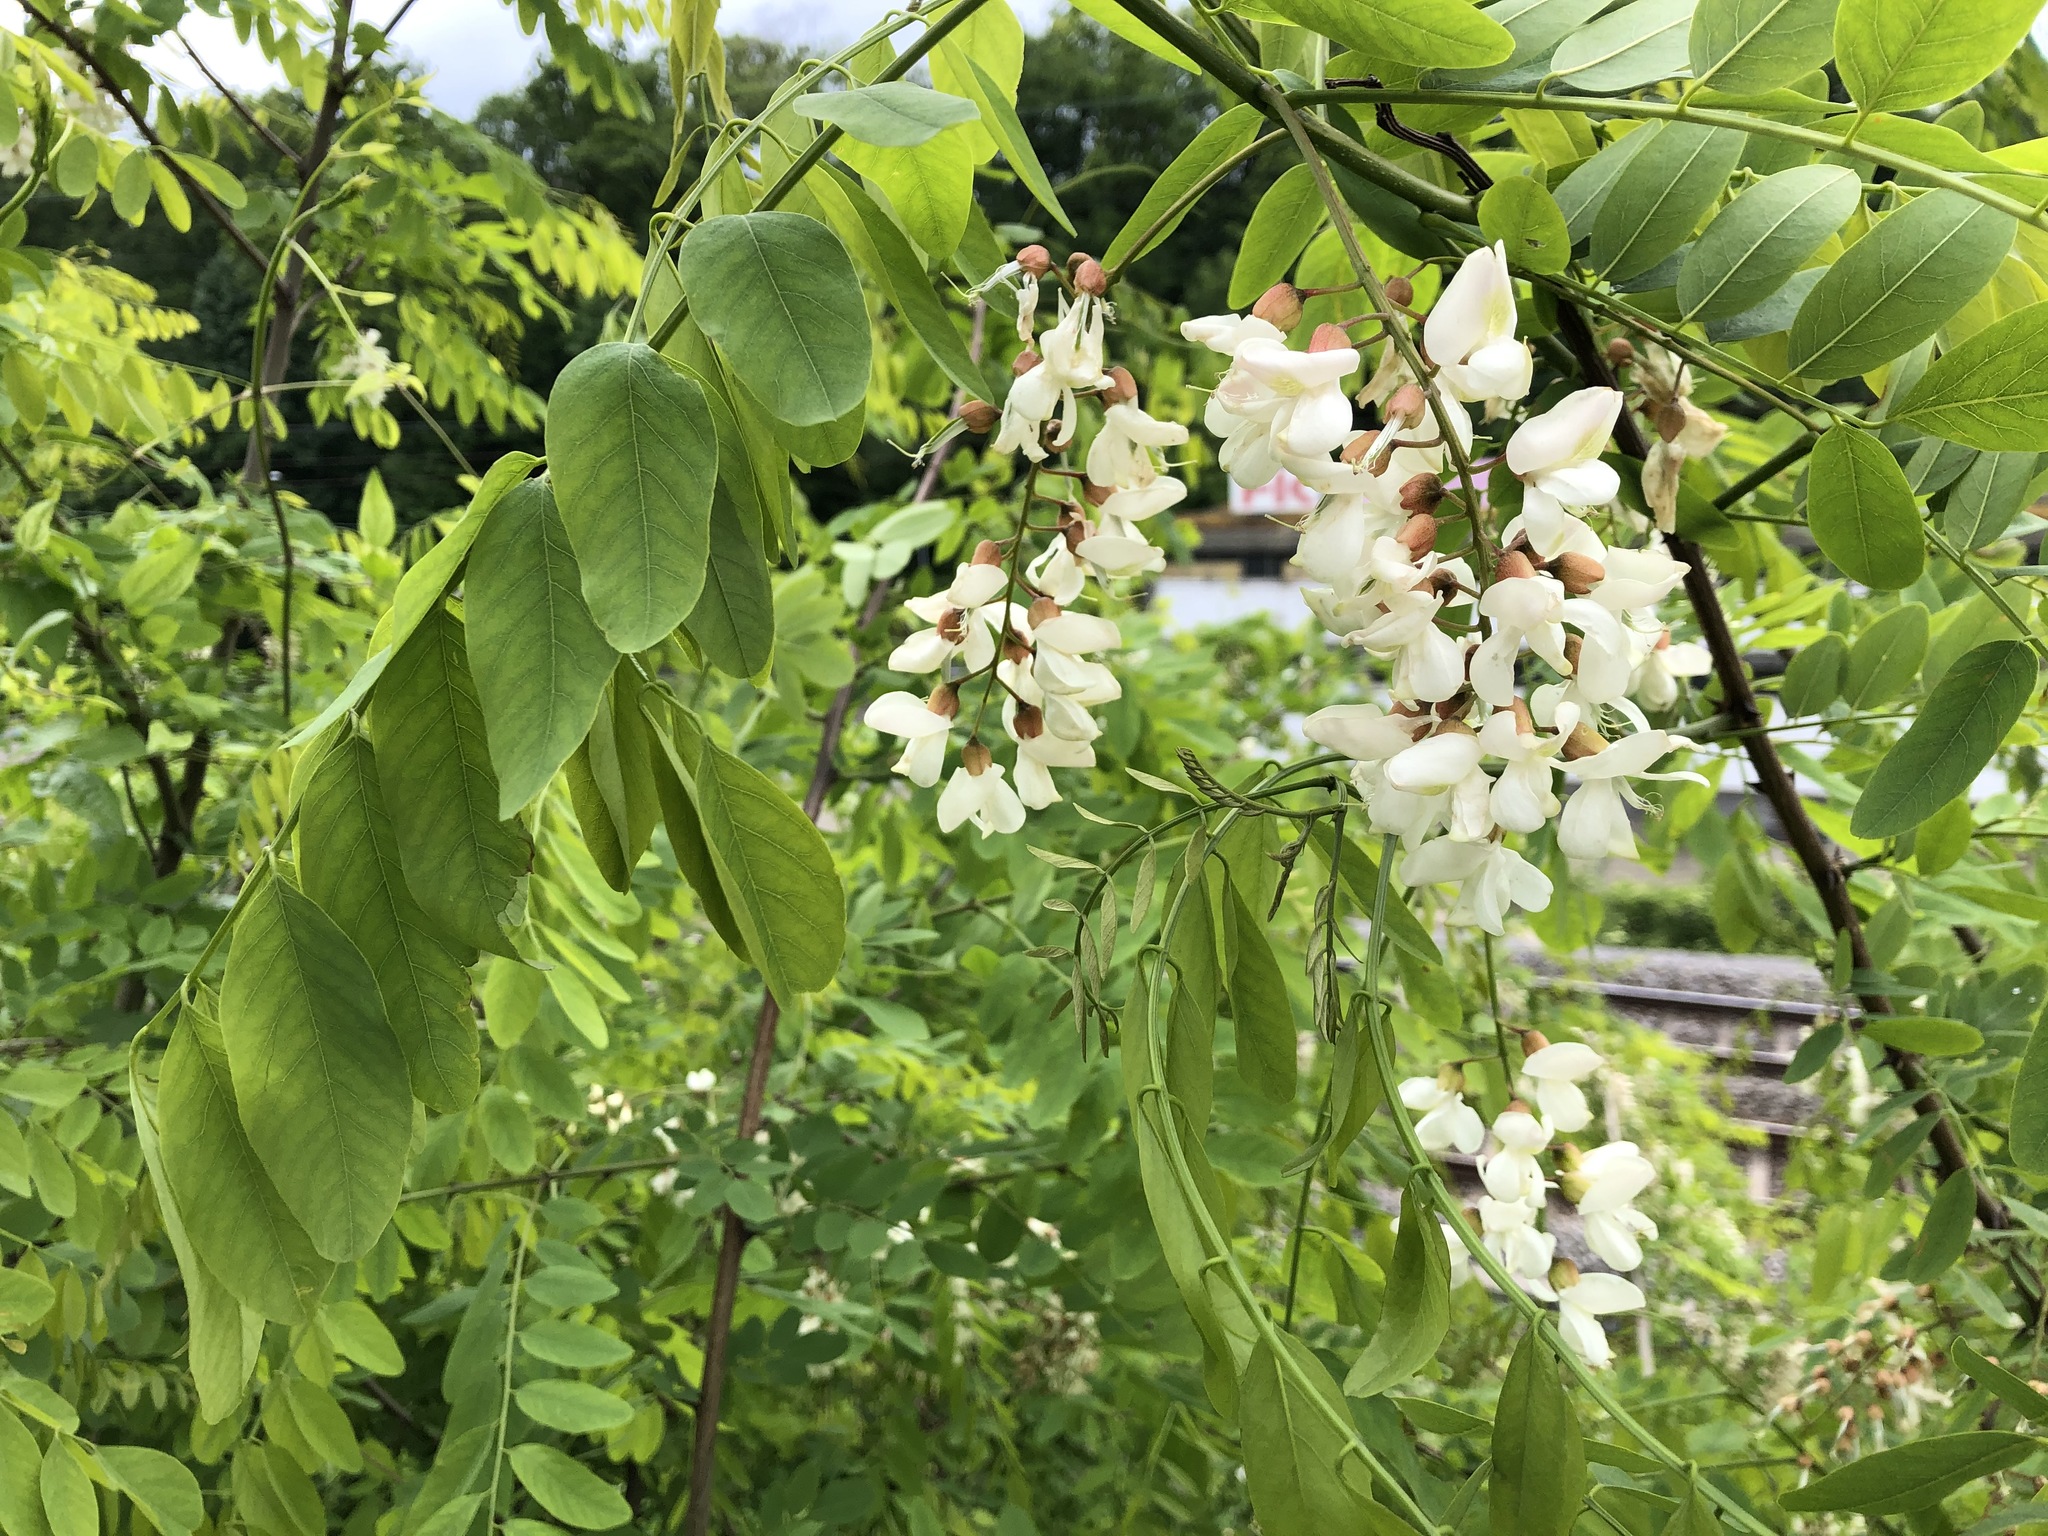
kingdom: Plantae
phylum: Tracheophyta
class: Magnoliopsida
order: Fabales
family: Fabaceae
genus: Robinia
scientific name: Robinia pseudoacacia
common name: Black locust
